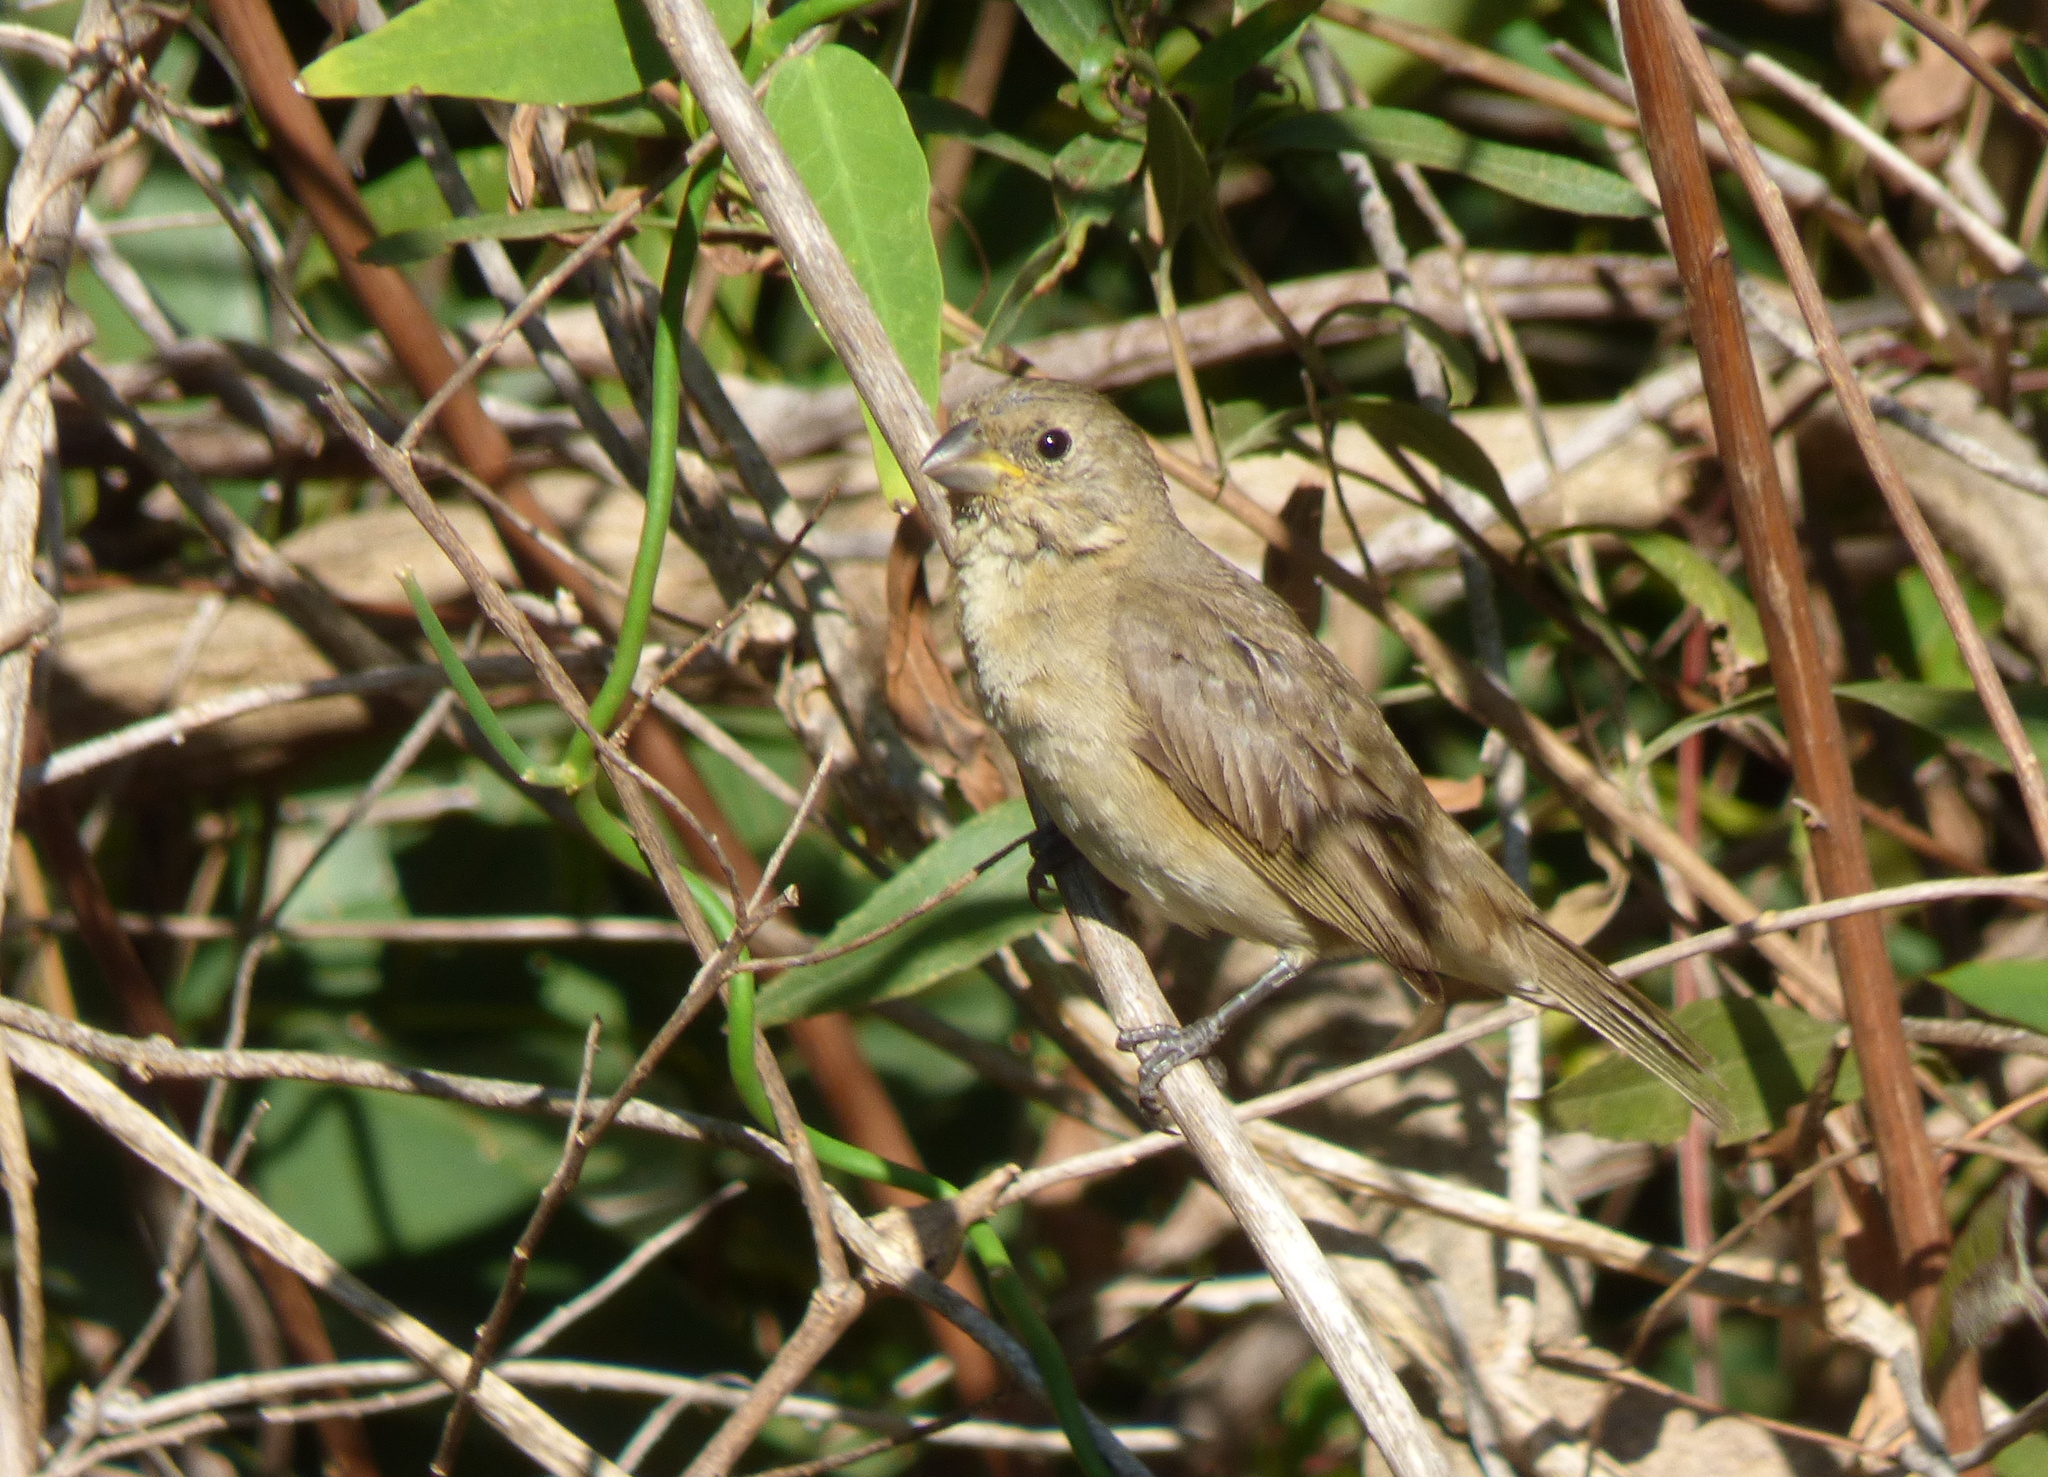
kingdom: Animalia
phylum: Chordata
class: Aves
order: Passeriformes
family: Thraupidae
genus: Sporophila
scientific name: Sporophila caerulescens
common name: Double-collared seedeater
